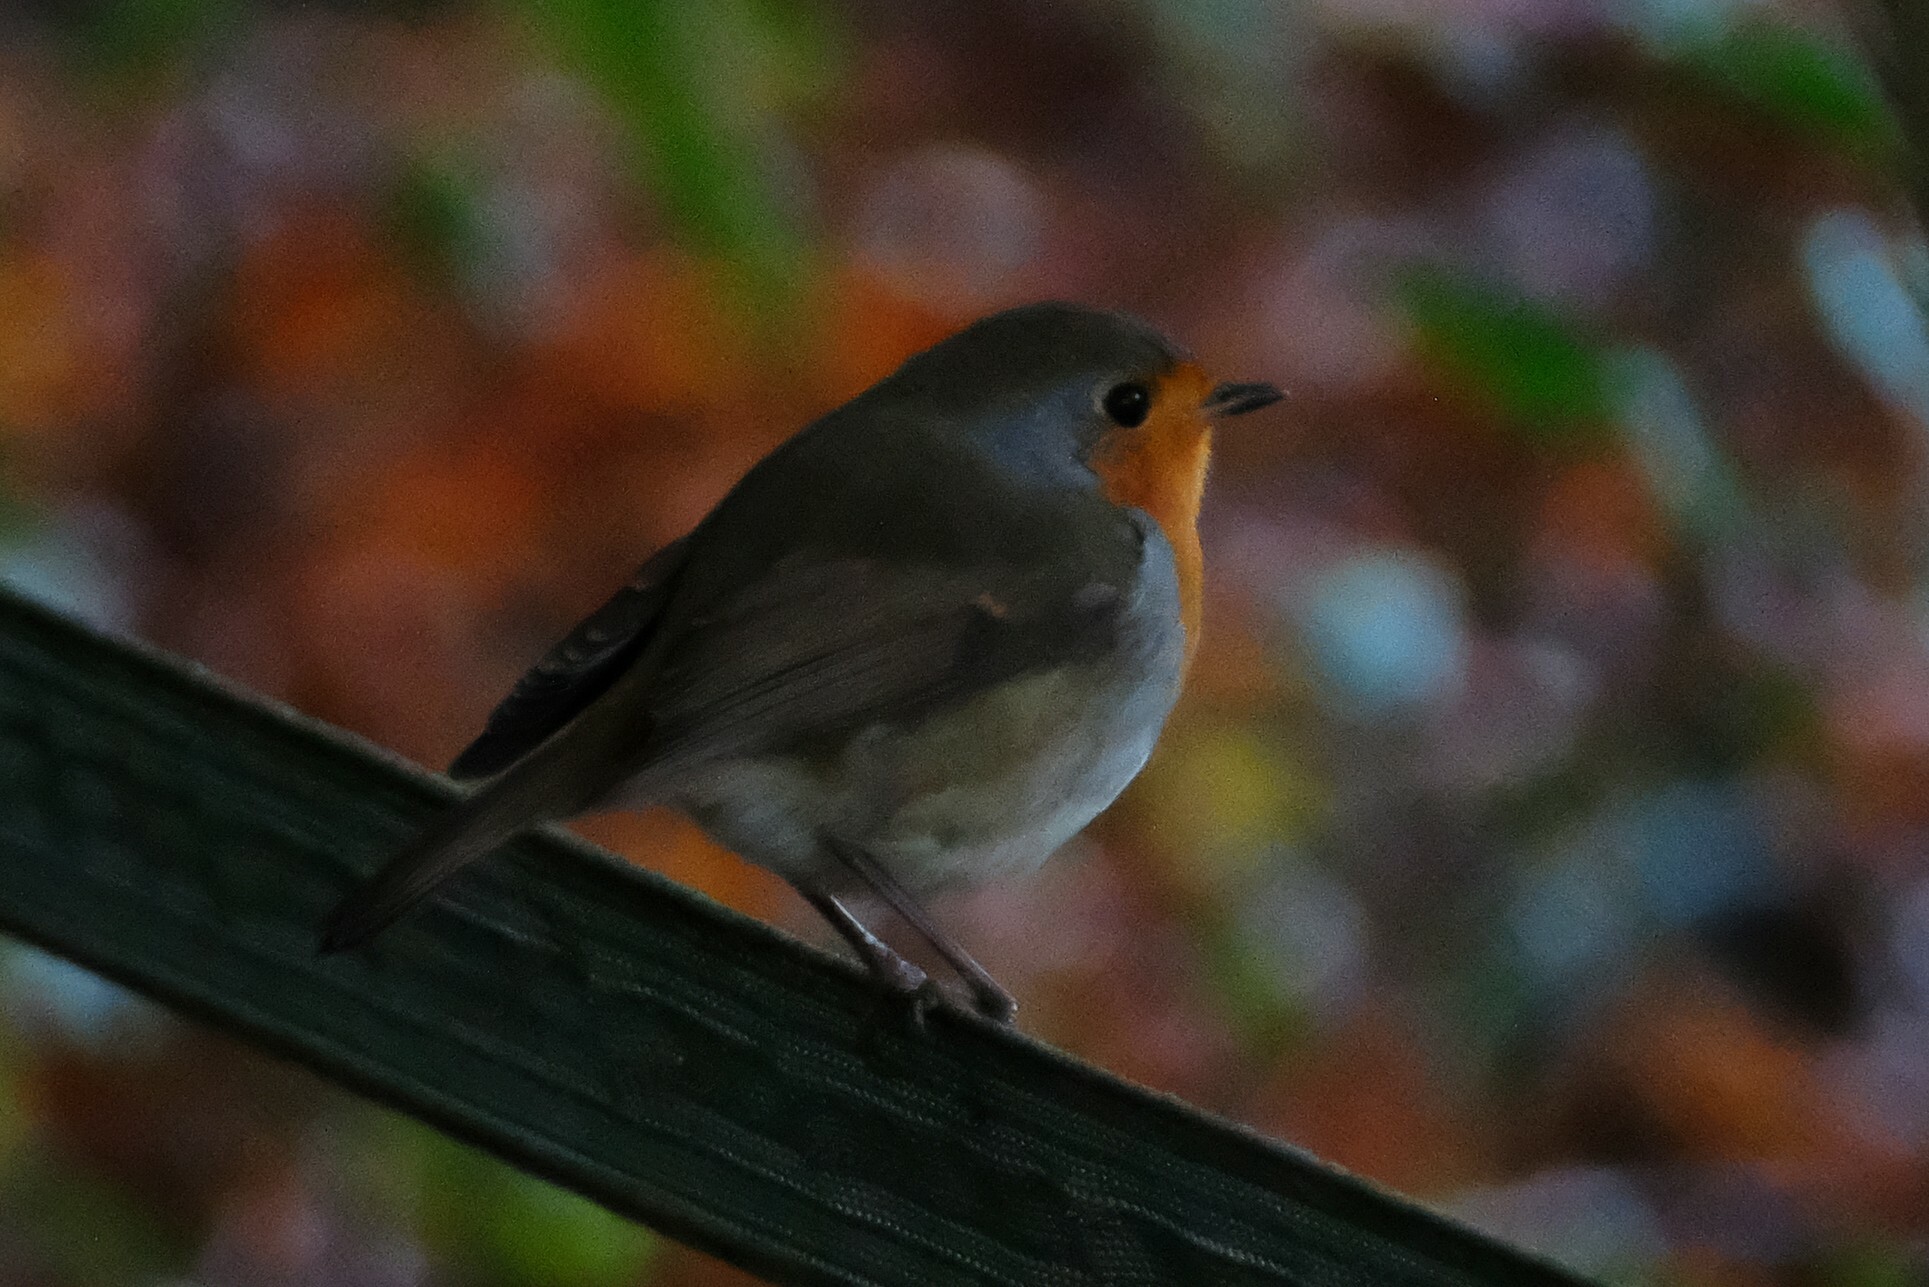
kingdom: Animalia
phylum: Chordata
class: Aves
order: Passeriformes
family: Muscicapidae
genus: Erithacus
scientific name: Erithacus rubecula
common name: European robin
